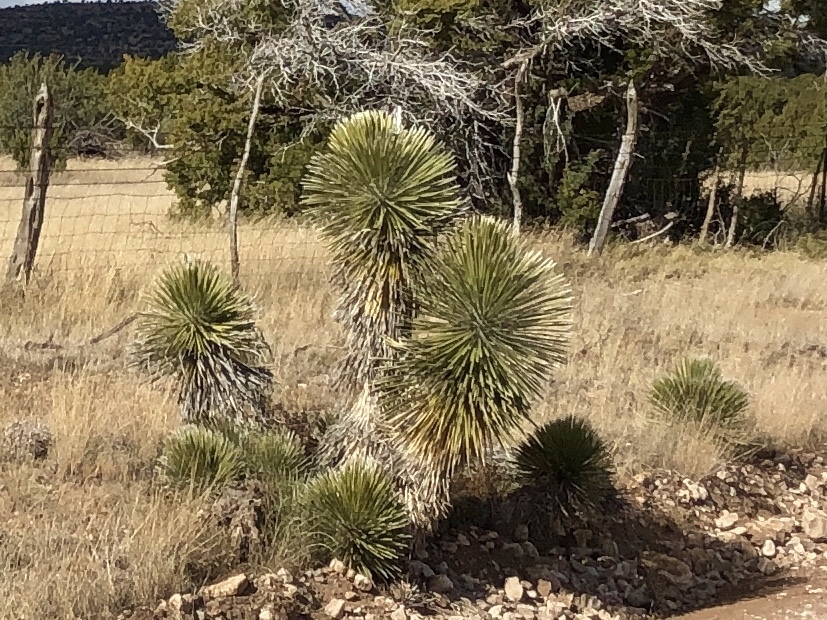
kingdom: Plantae
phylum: Tracheophyta
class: Liliopsida
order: Asparagales
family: Asparagaceae
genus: Yucca
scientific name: Yucca elata
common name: Palmella
